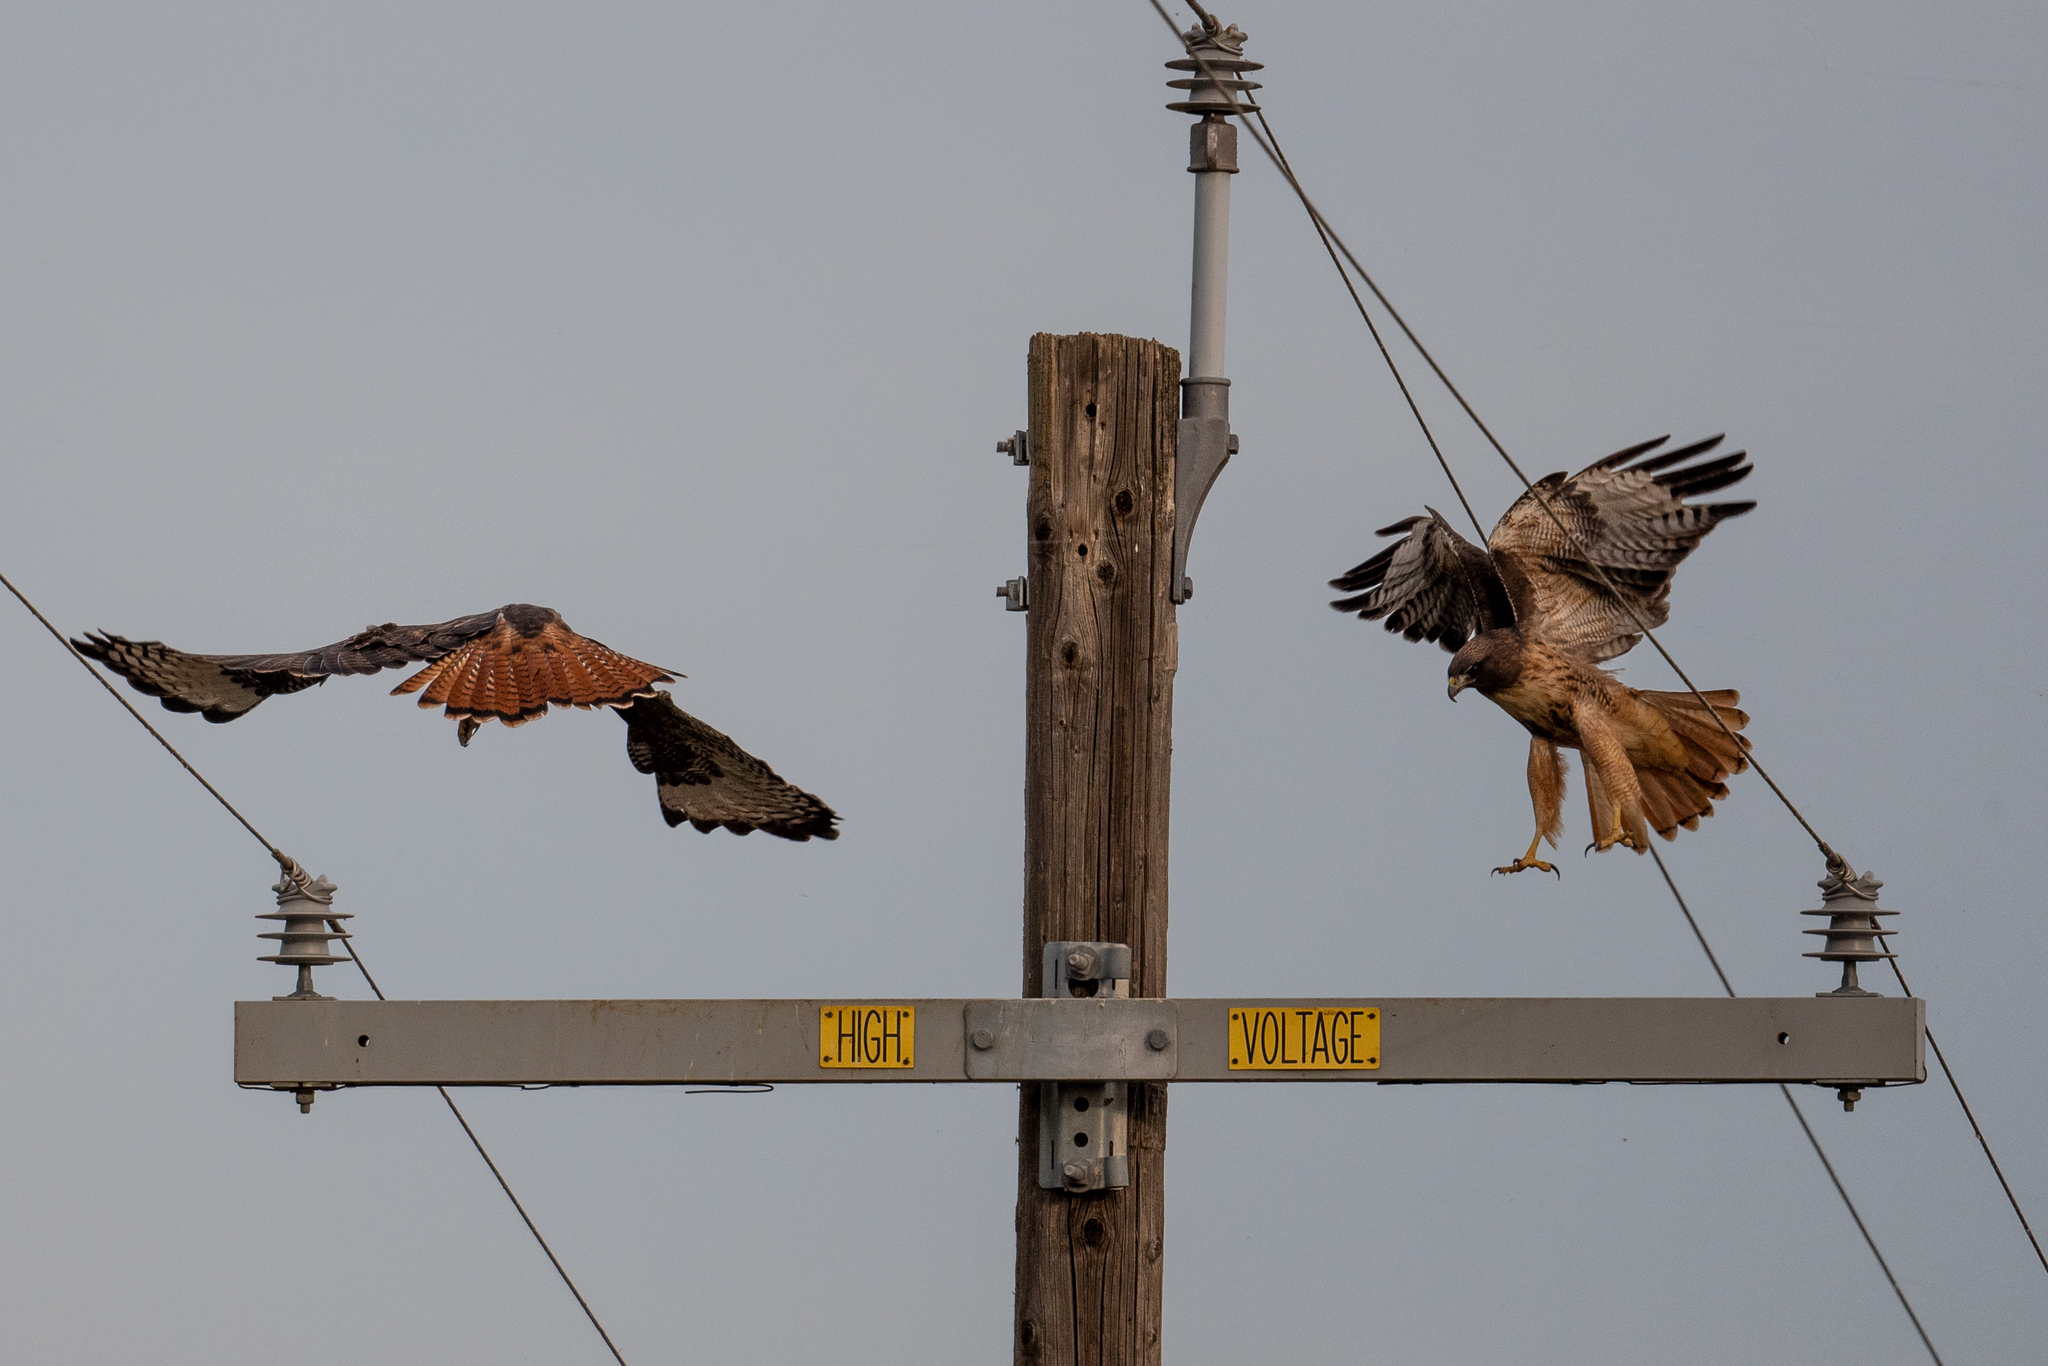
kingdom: Animalia
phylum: Chordata
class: Aves
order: Accipitriformes
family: Accipitridae
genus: Buteo
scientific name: Buteo jamaicensis
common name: Red-tailed hawk
